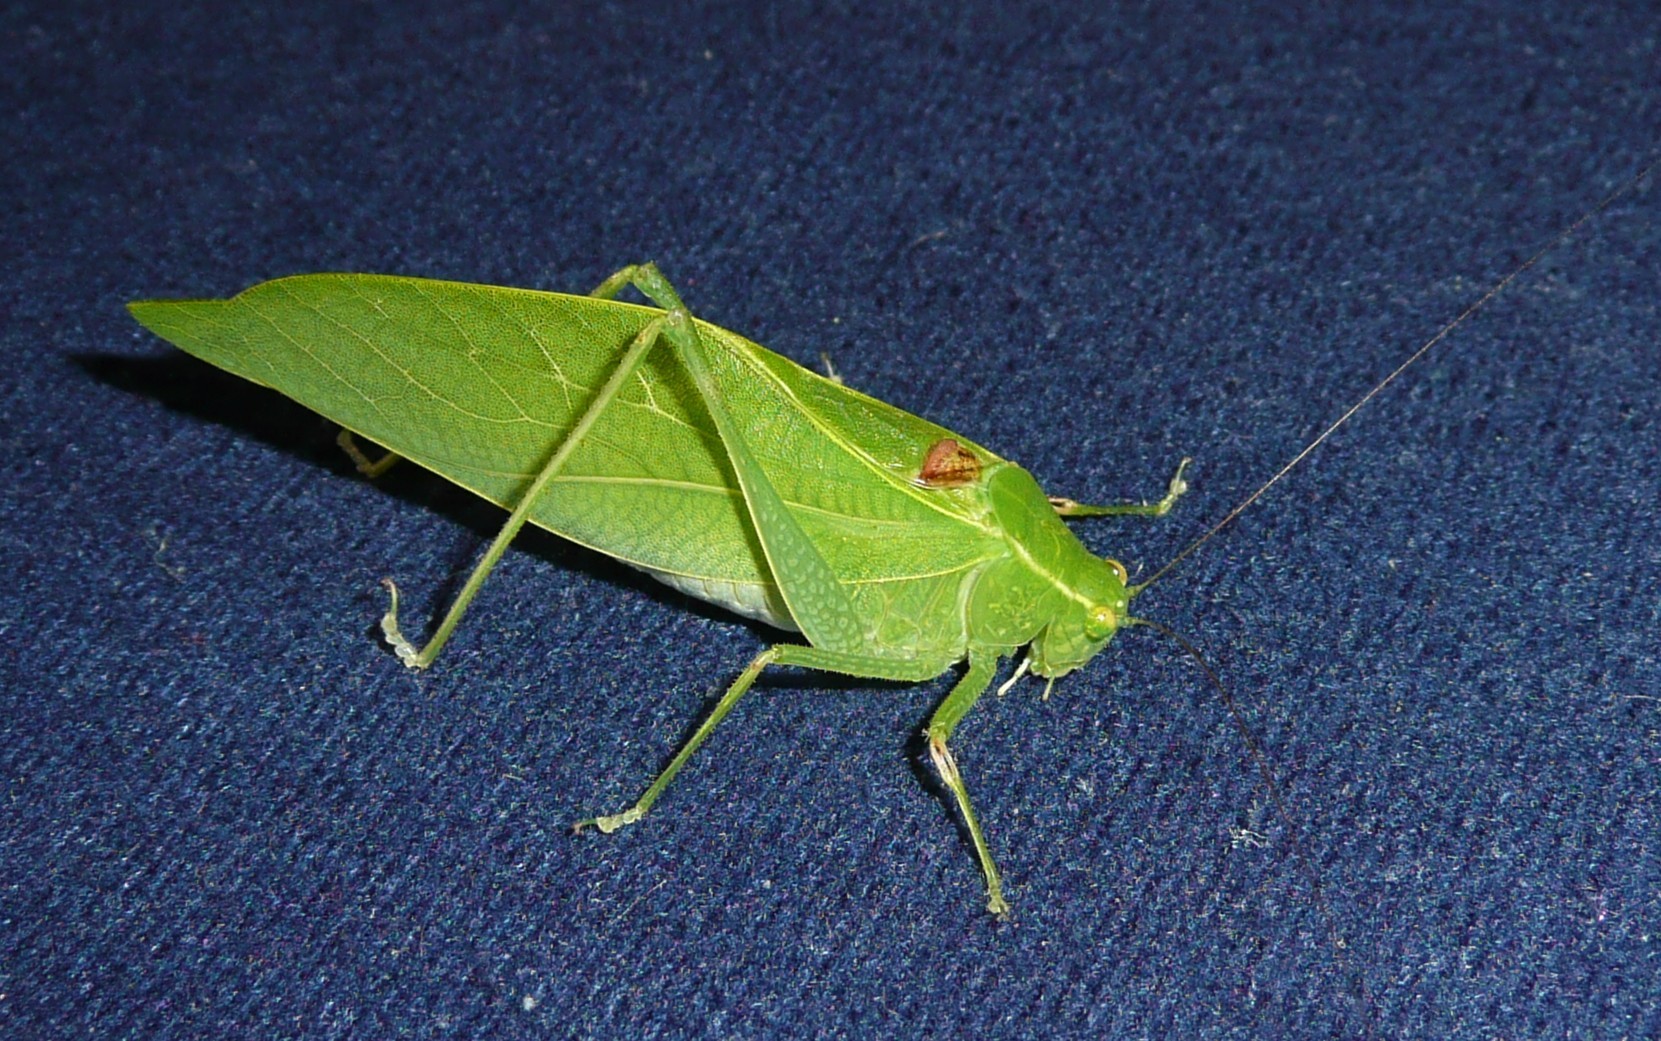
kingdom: Animalia
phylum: Arthropoda
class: Insecta
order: Orthoptera
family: Tettigoniidae
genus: Microcentrum
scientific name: Microcentrum retinerve
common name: Angular-winged katydid
